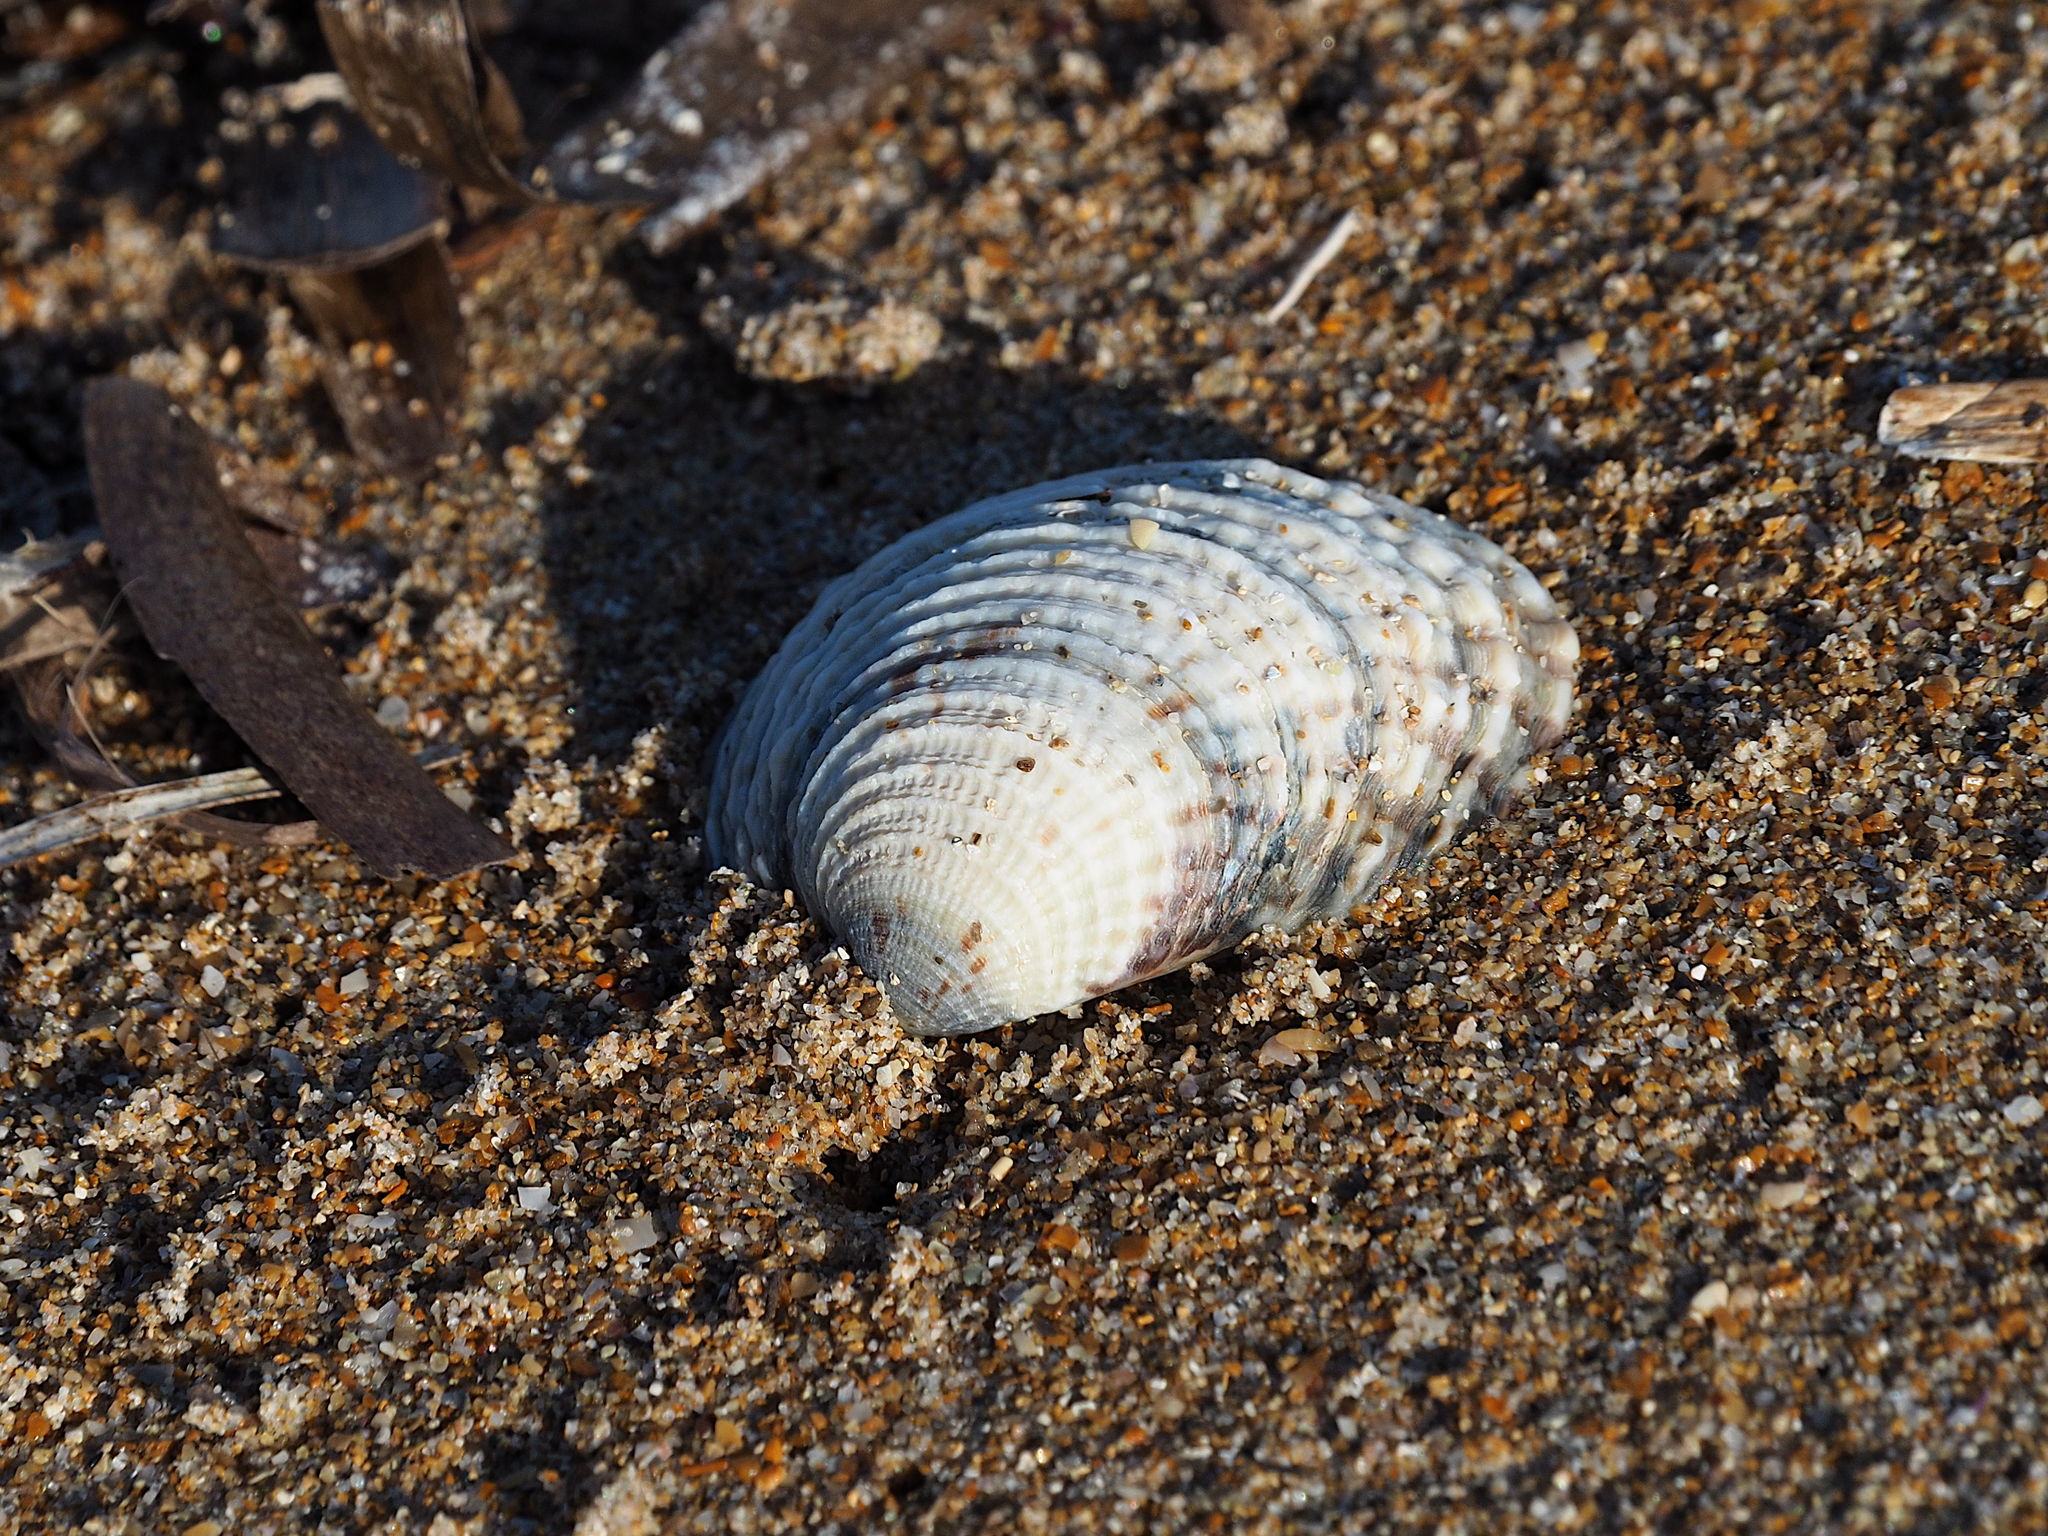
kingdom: Animalia
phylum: Mollusca
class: Bivalvia
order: Venerida
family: Veneridae
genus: Venus
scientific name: Venus verrucosa
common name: Warty venus
